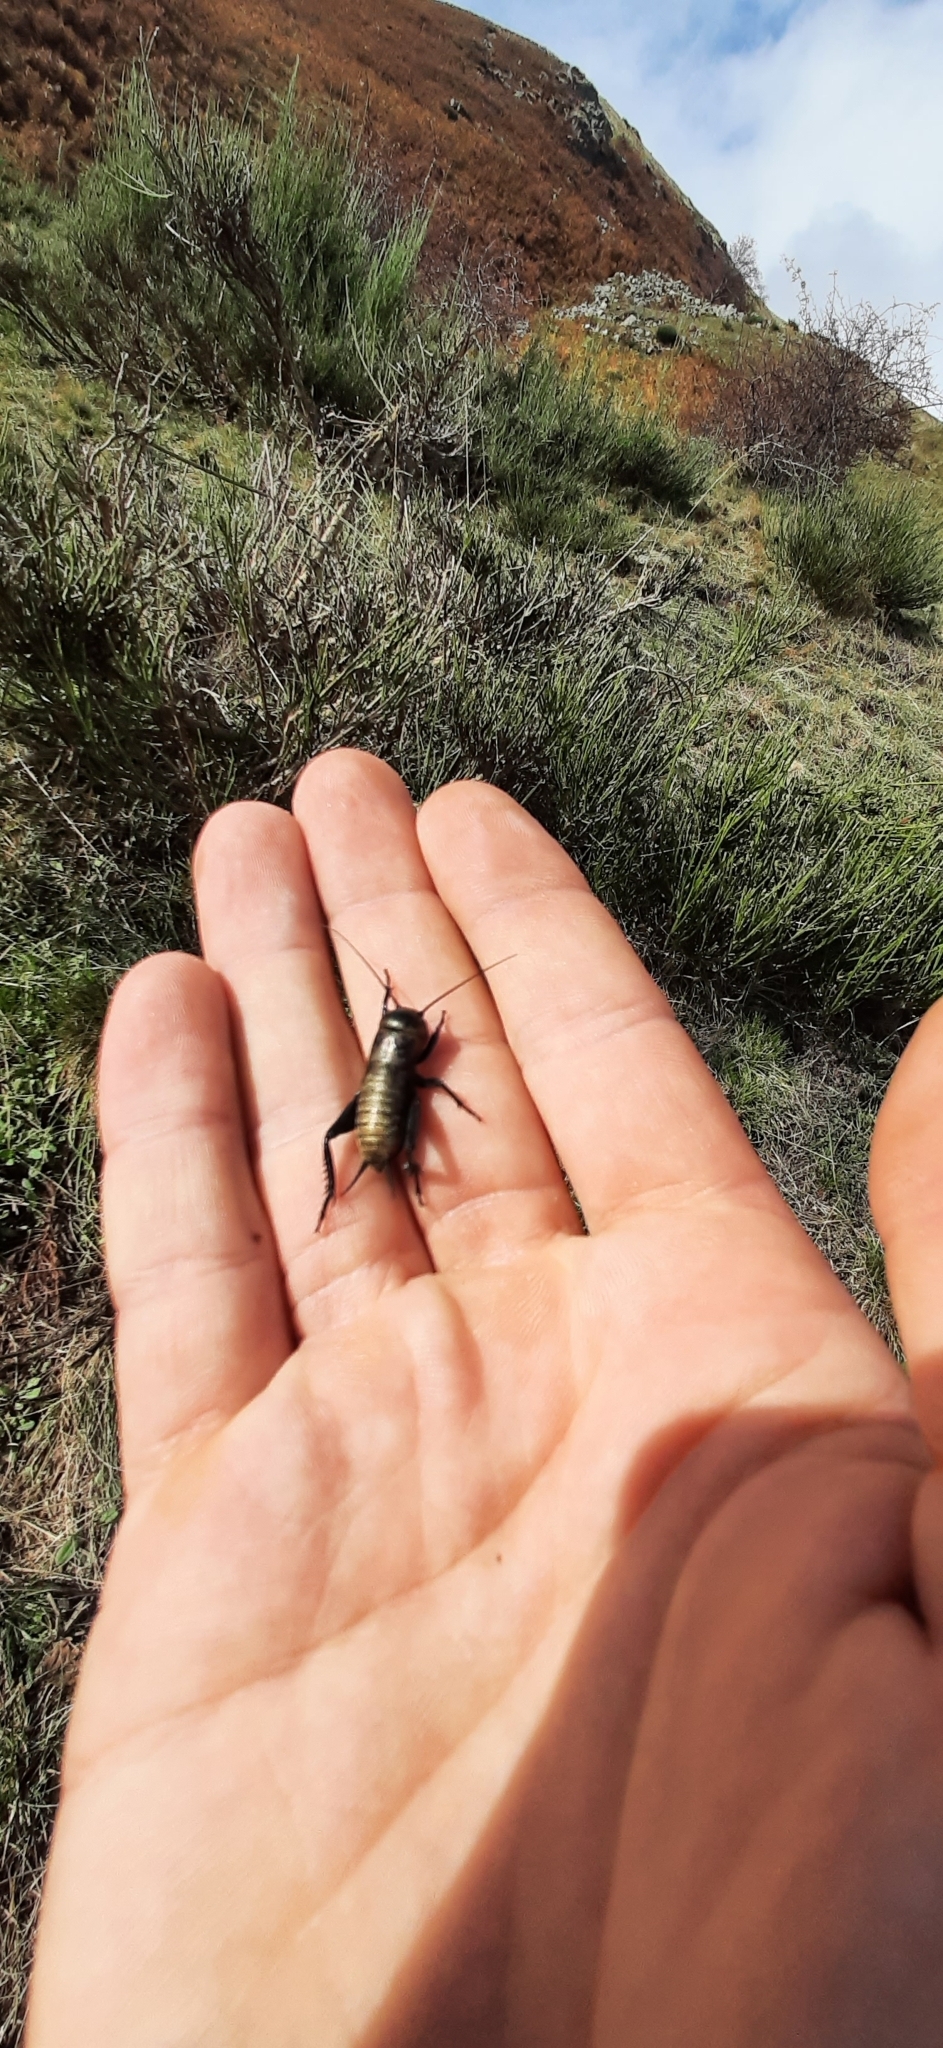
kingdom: Animalia
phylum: Arthropoda
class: Insecta
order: Orthoptera
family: Gryllidae
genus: Gryllus
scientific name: Gryllus campestris
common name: Field cricket
